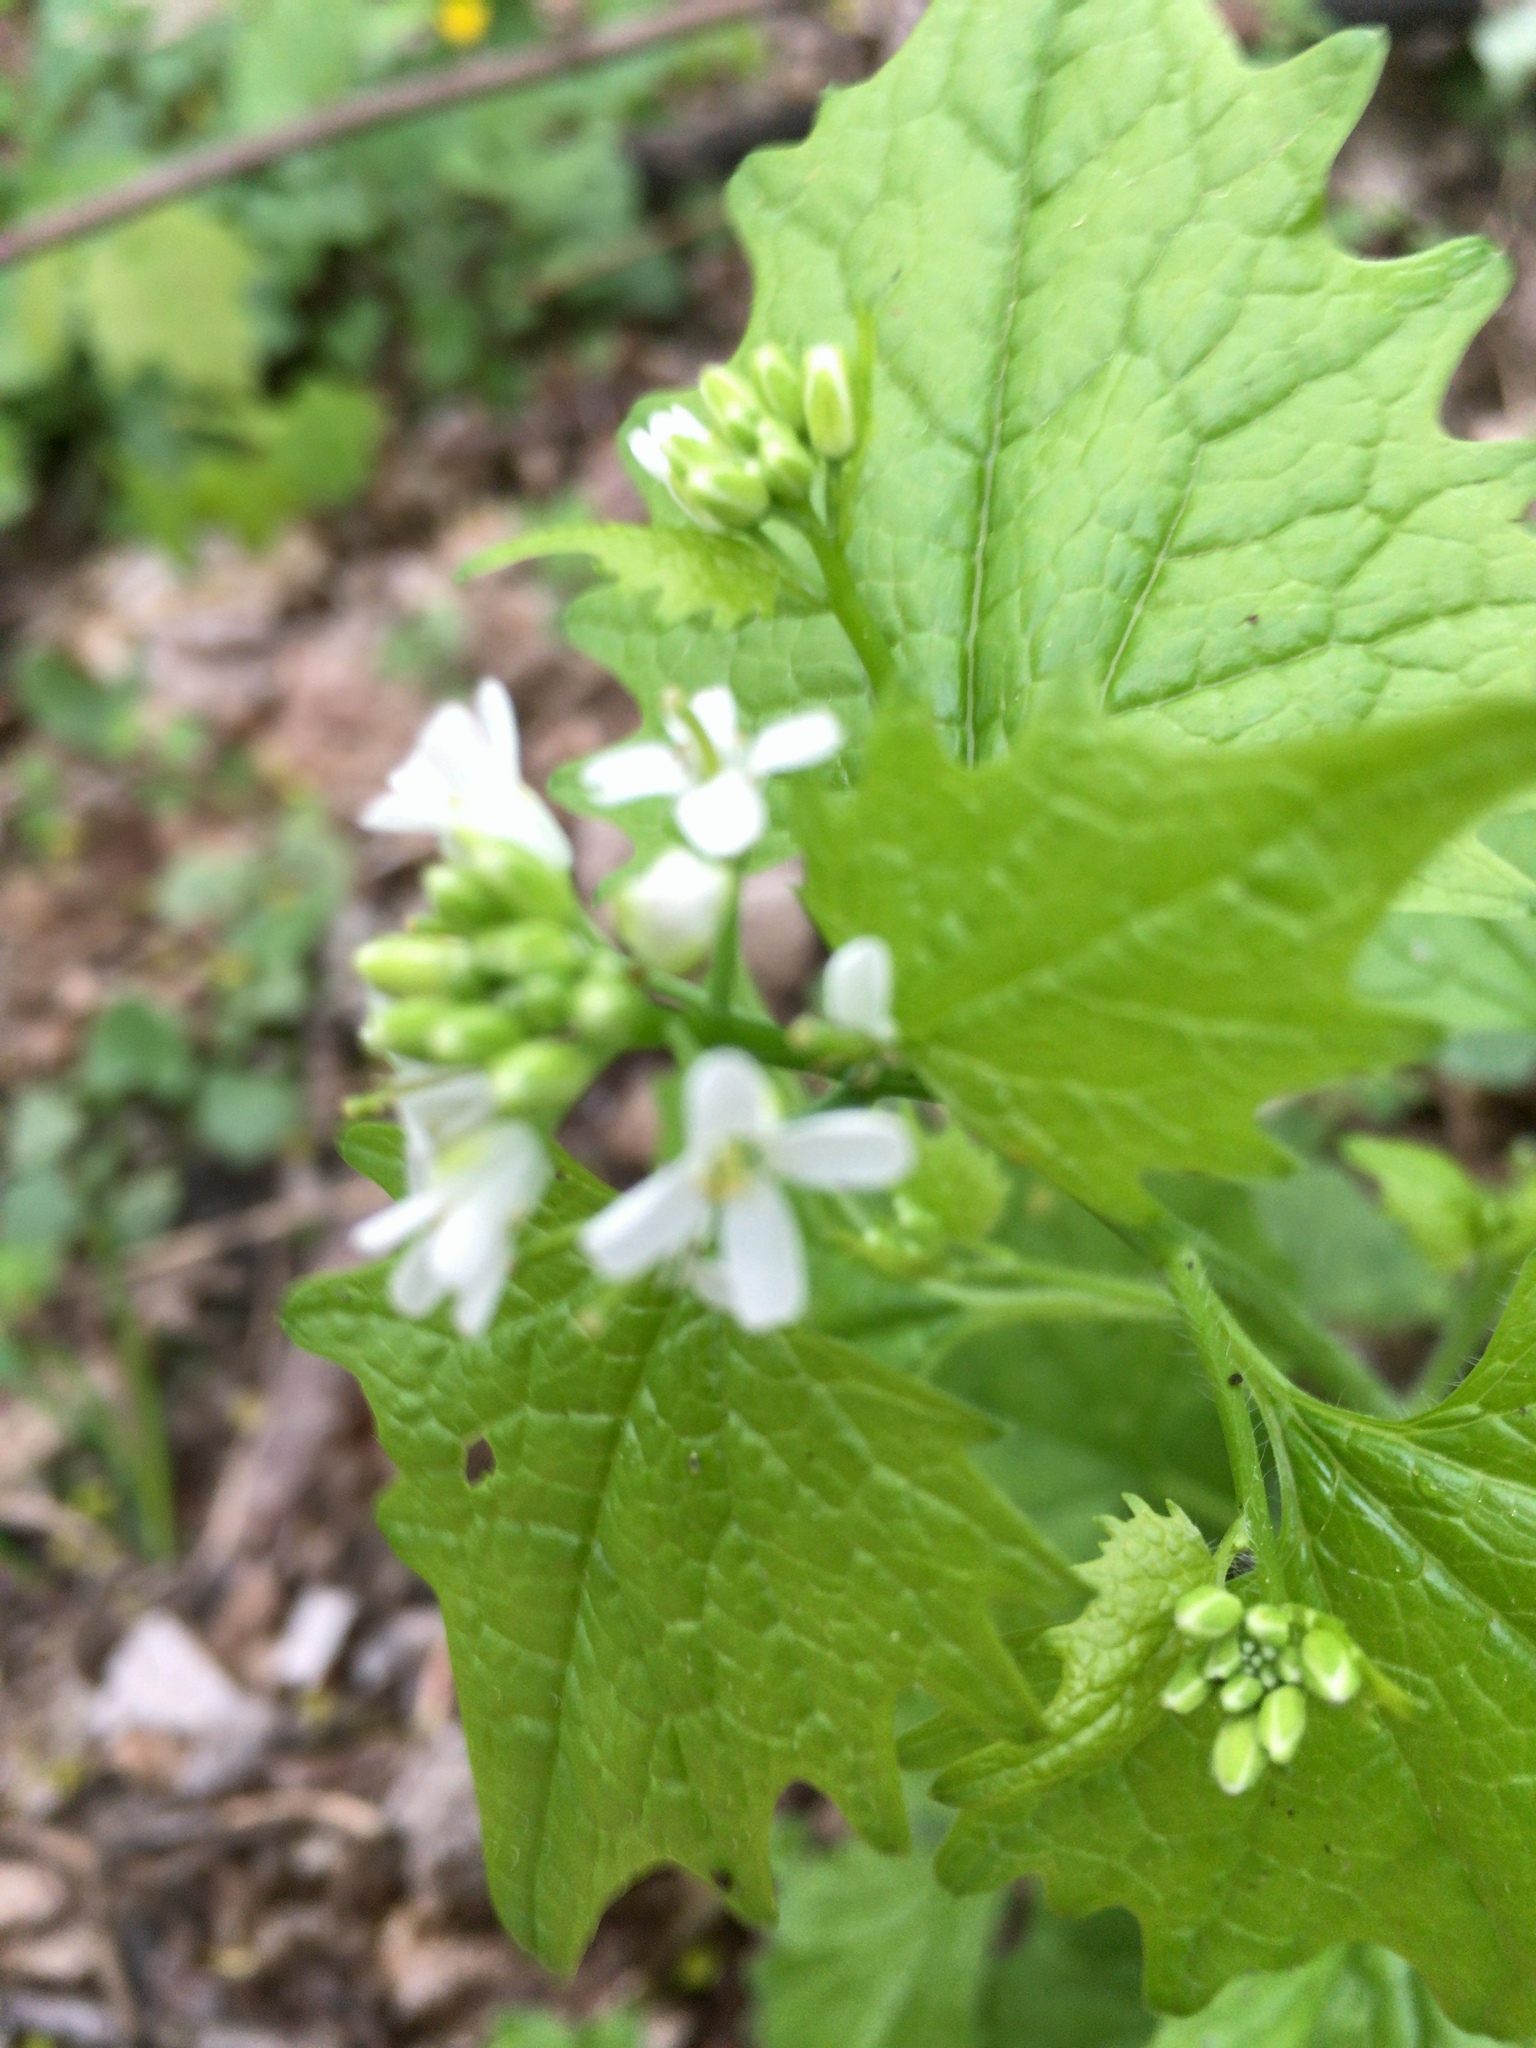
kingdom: Plantae
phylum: Tracheophyta
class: Magnoliopsida
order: Brassicales
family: Brassicaceae
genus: Alliaria
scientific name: Alliaria petiolata
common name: Garlic mustard
